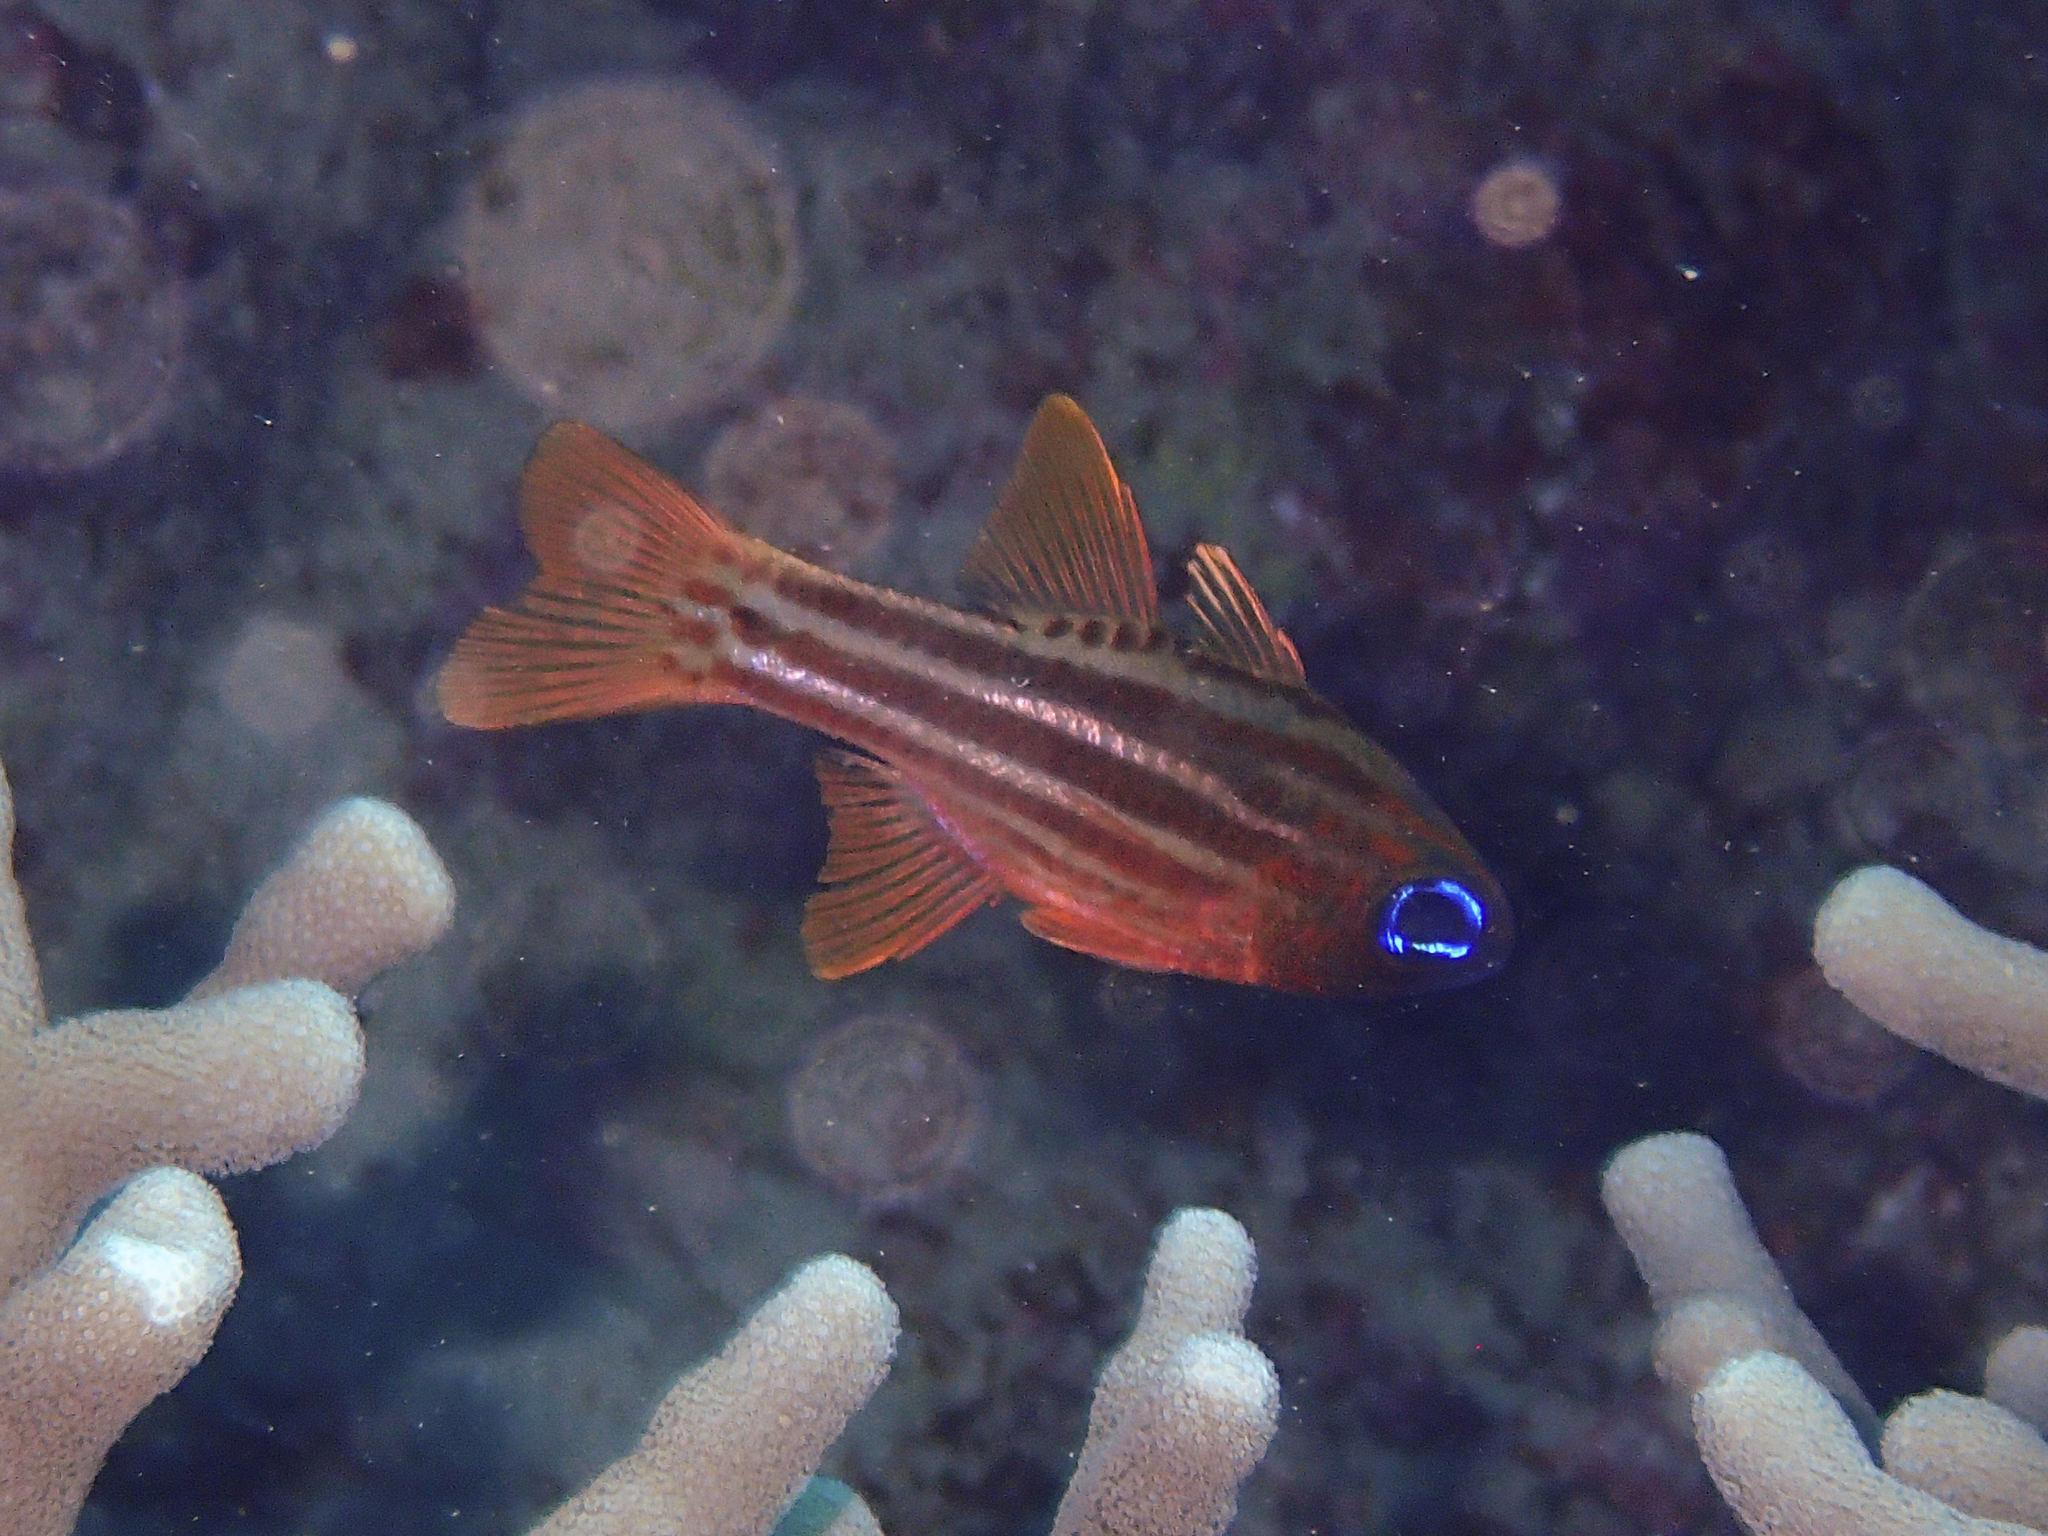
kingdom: Animalia
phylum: Chordata
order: Perciformes
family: Apogonidae
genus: Ostorhinchus
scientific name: Ostorhinchus compressus
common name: Ochre-striped cardinalfish
